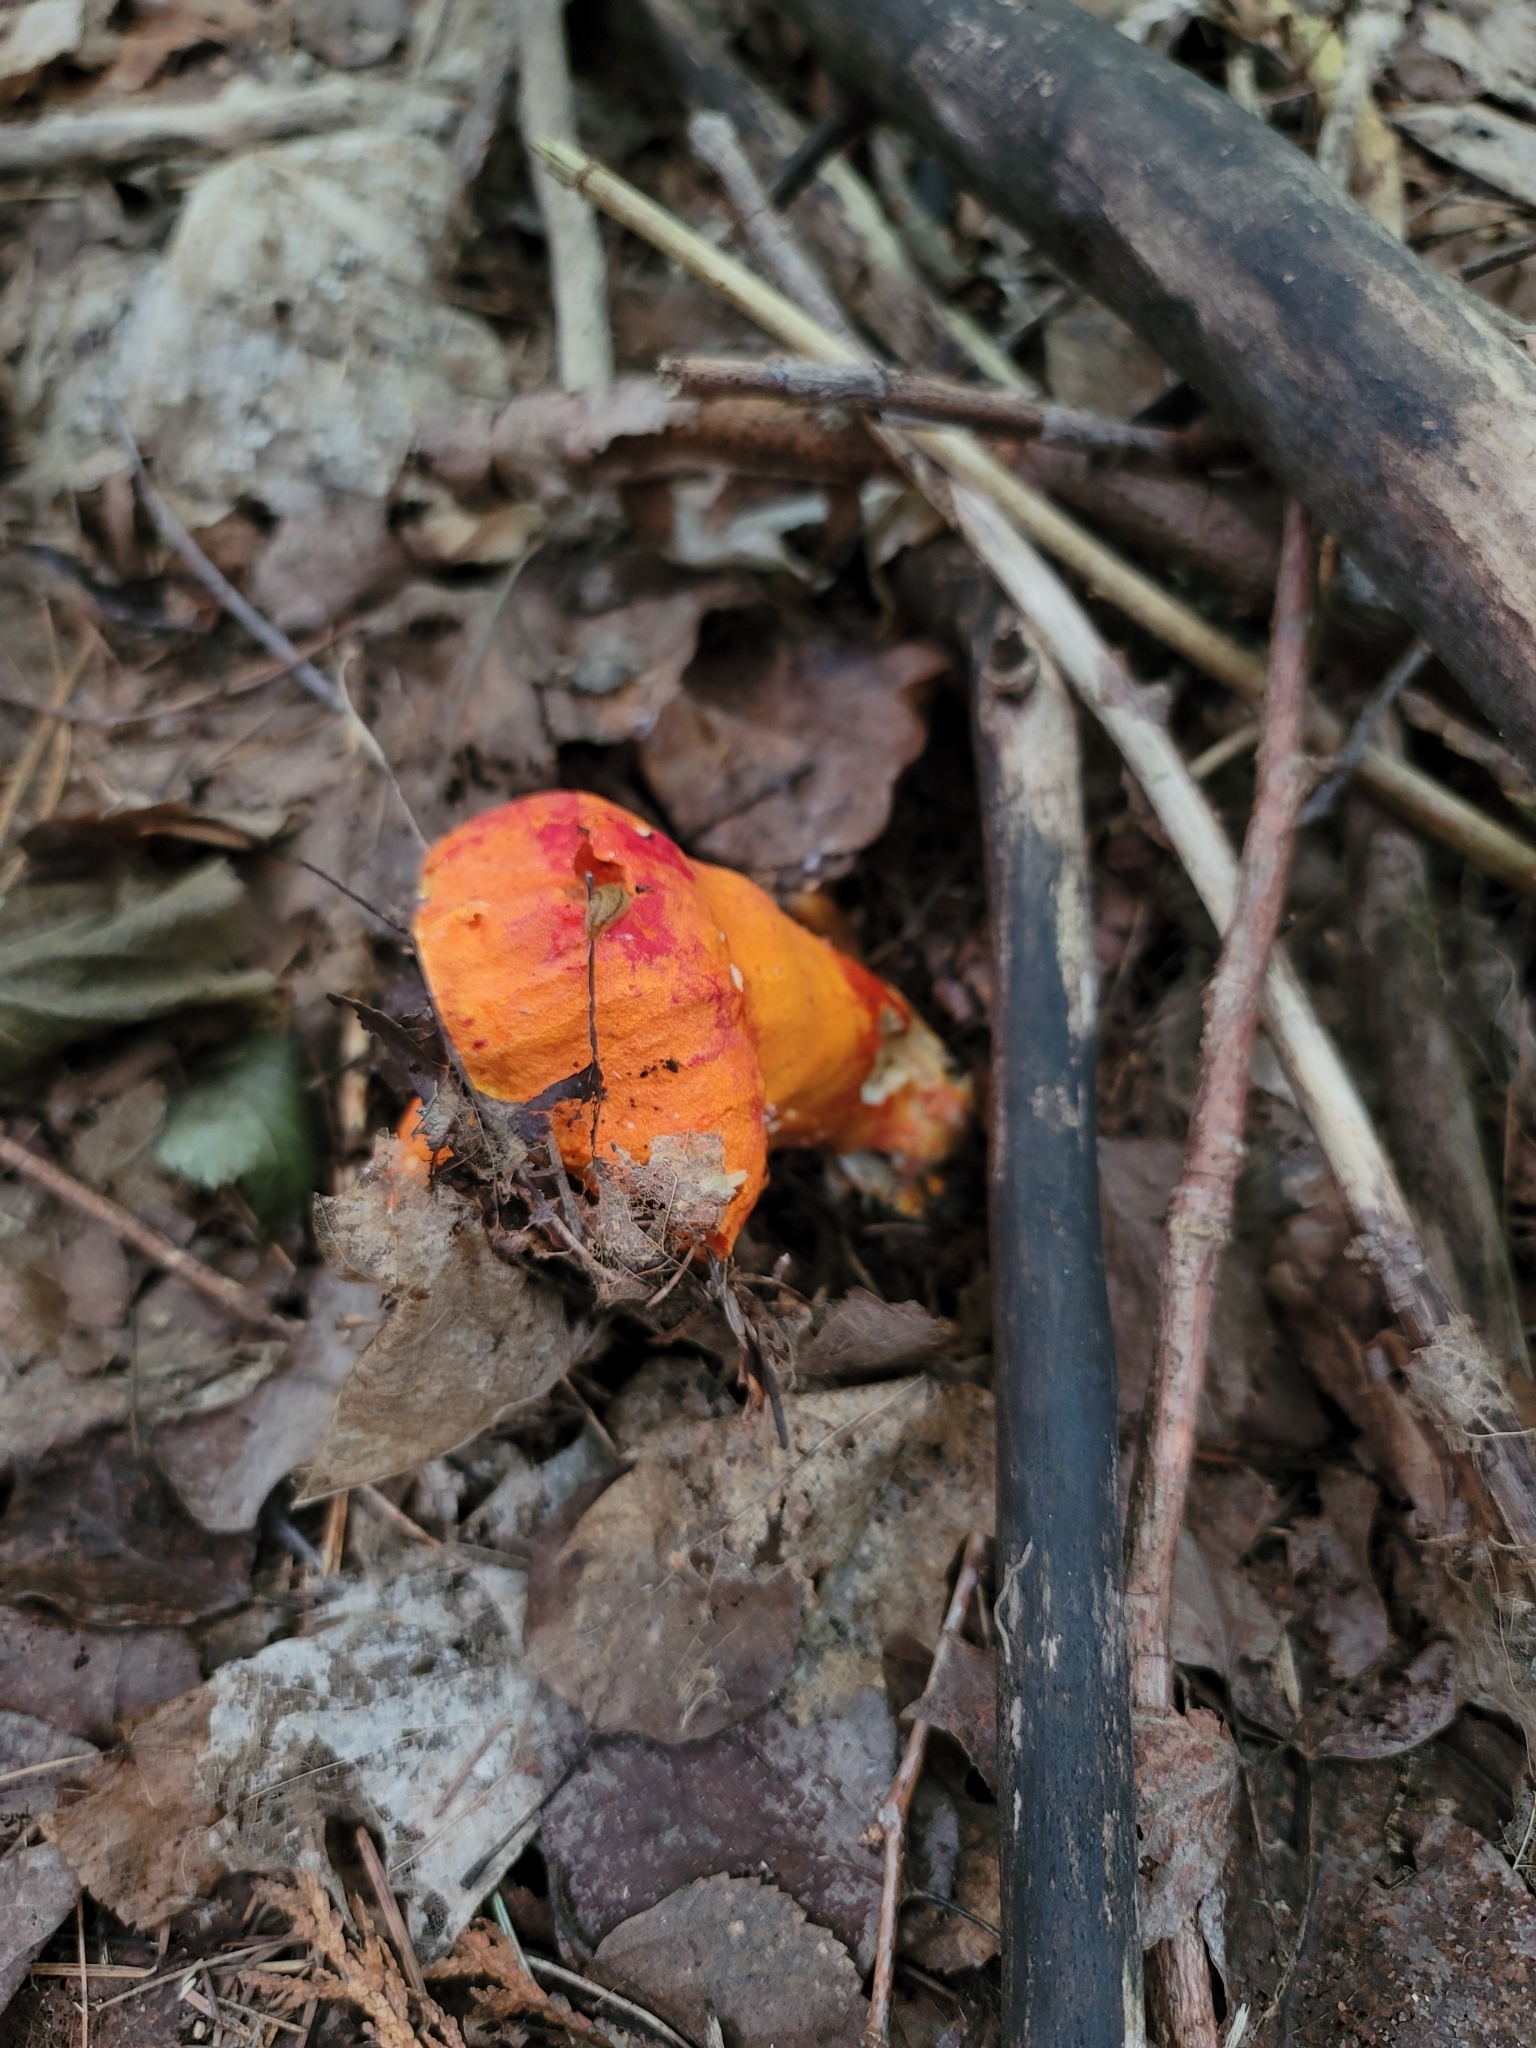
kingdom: Fungi
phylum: Ascomycota
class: Sordariomycetes
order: Hypocreales
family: Hypocreaceae
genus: Hypomyces
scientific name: Hypomyces lactifluorum
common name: Lobster mushroom
